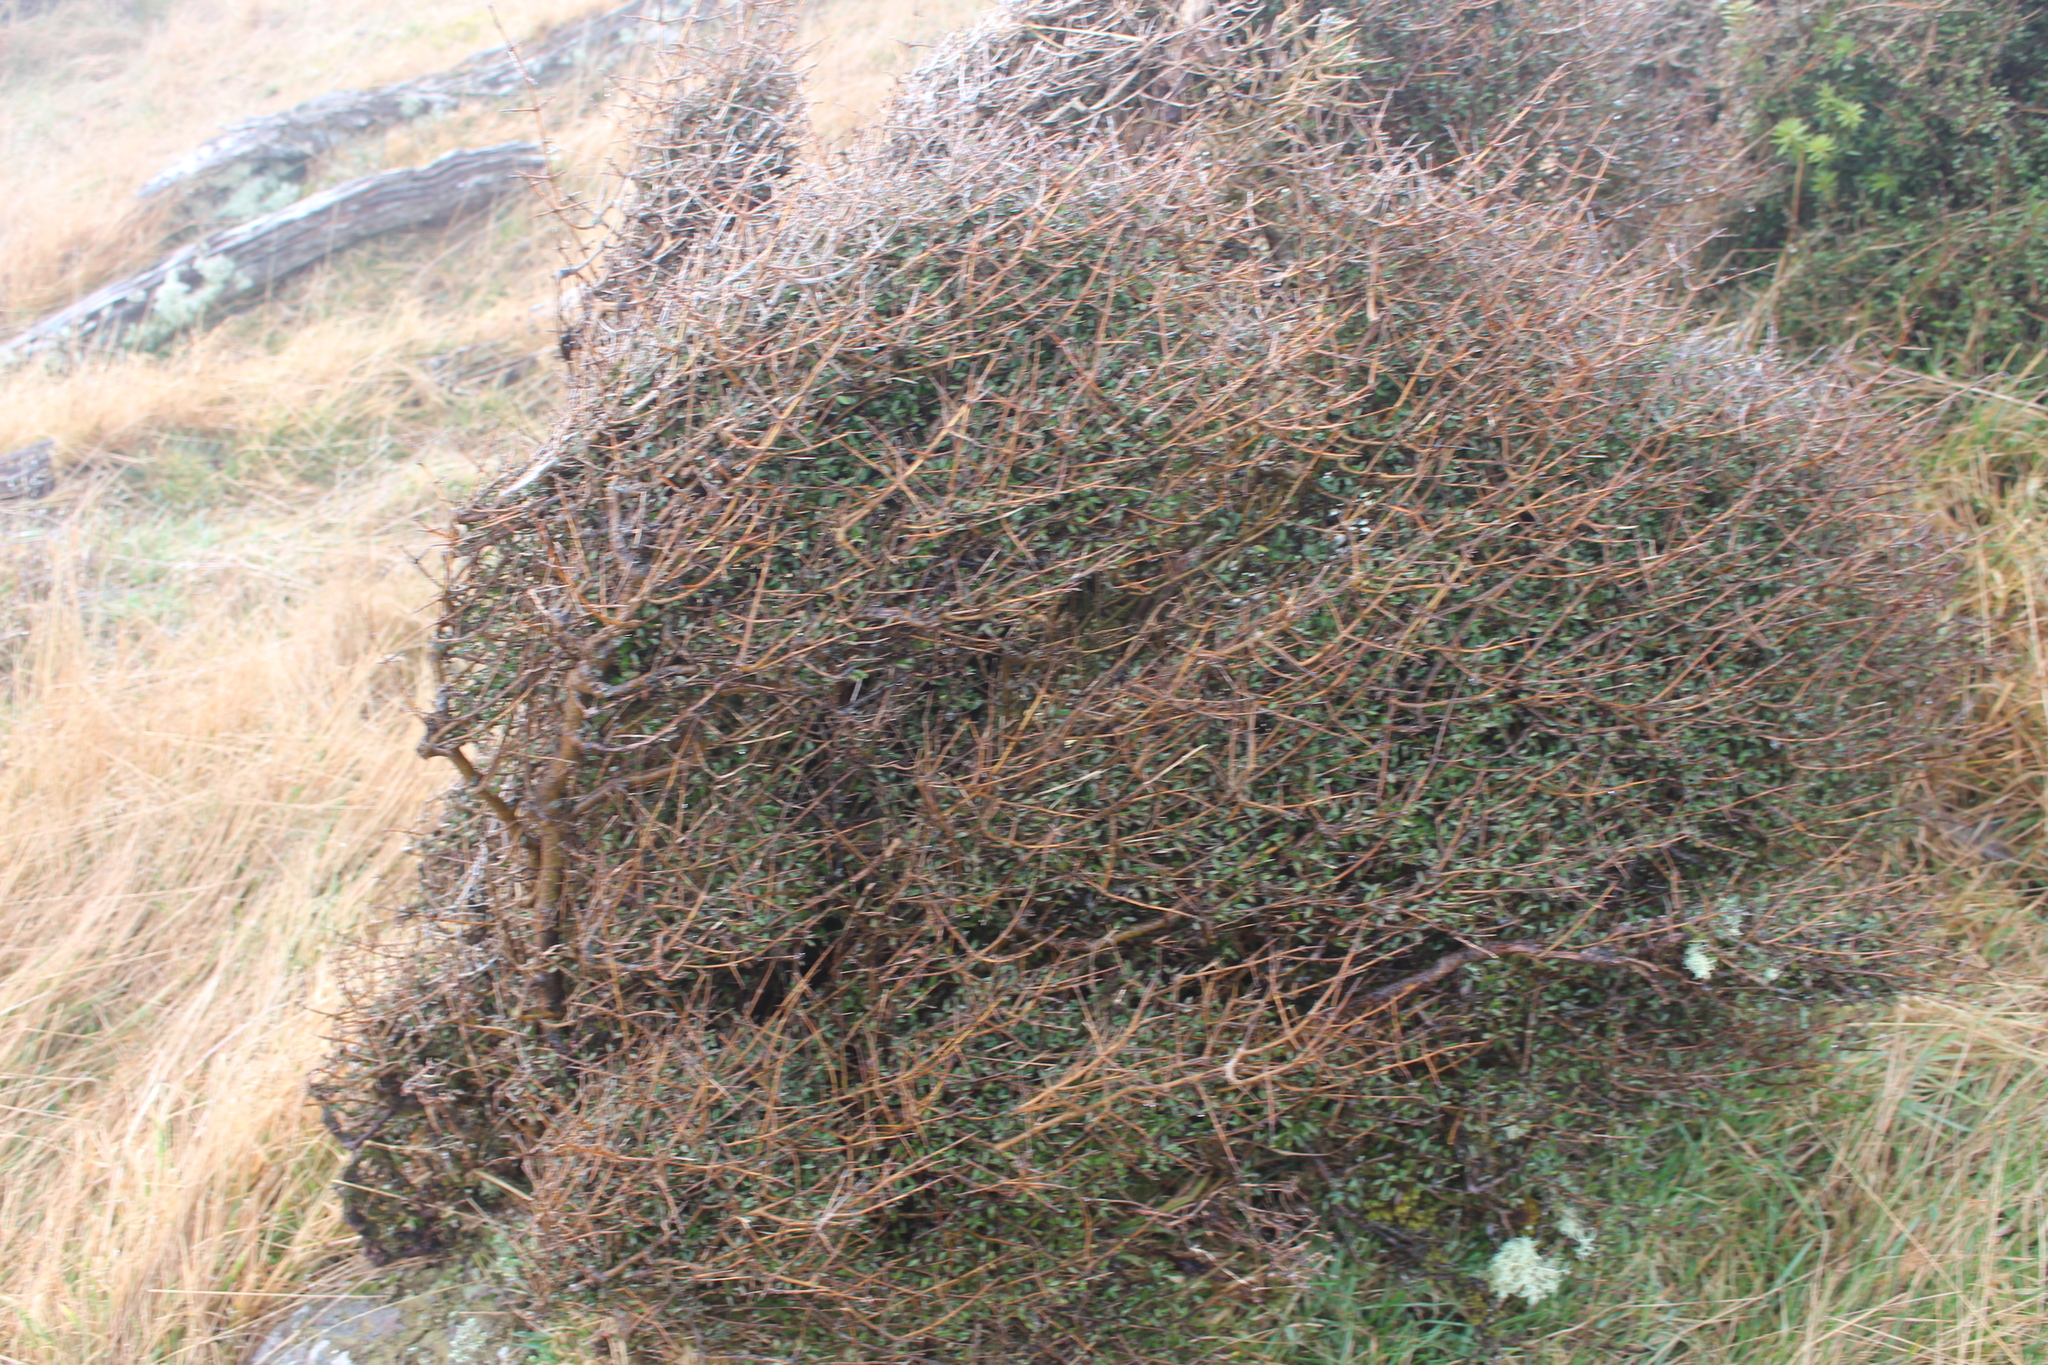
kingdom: Plantae
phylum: Tracheophyta
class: Magnoliopsida
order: Gentianales
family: Rubiaceae
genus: Coprosma
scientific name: Coprosma propinqua
